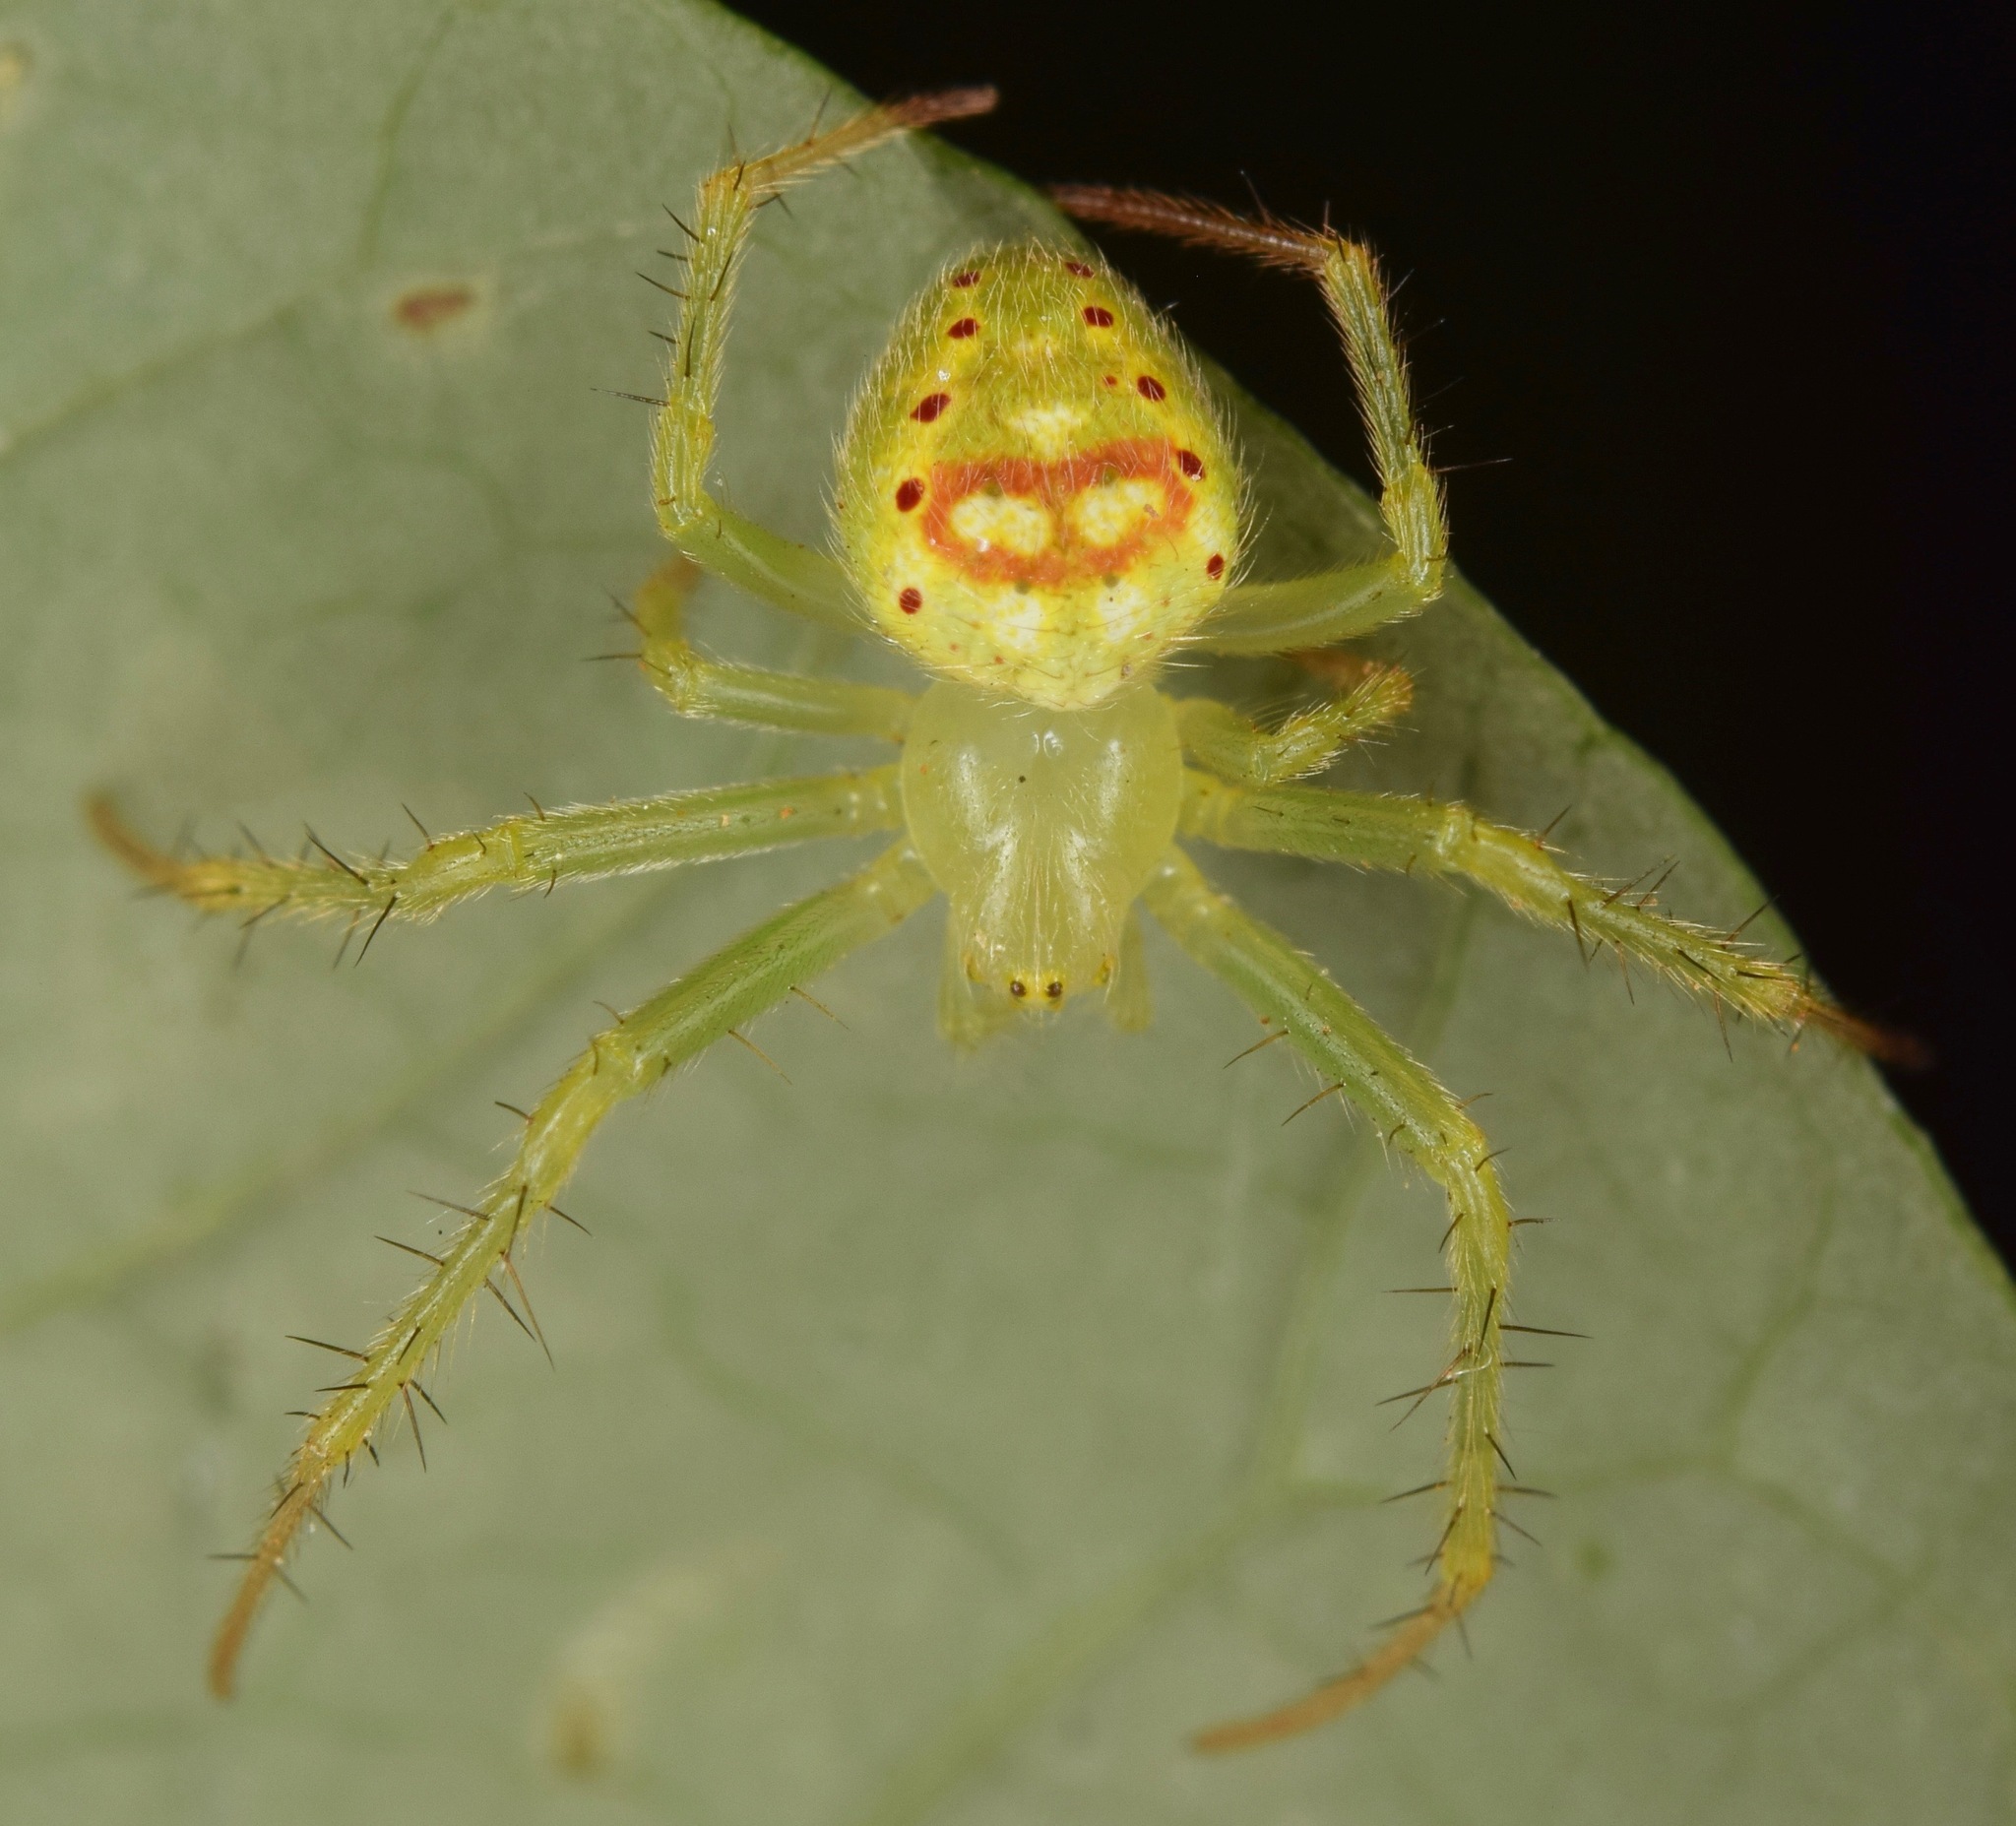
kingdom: Animalia
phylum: Arthropoda
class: Arachnida
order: Araneae
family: Araneidae
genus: Araneus
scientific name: Araneus cingulatus
